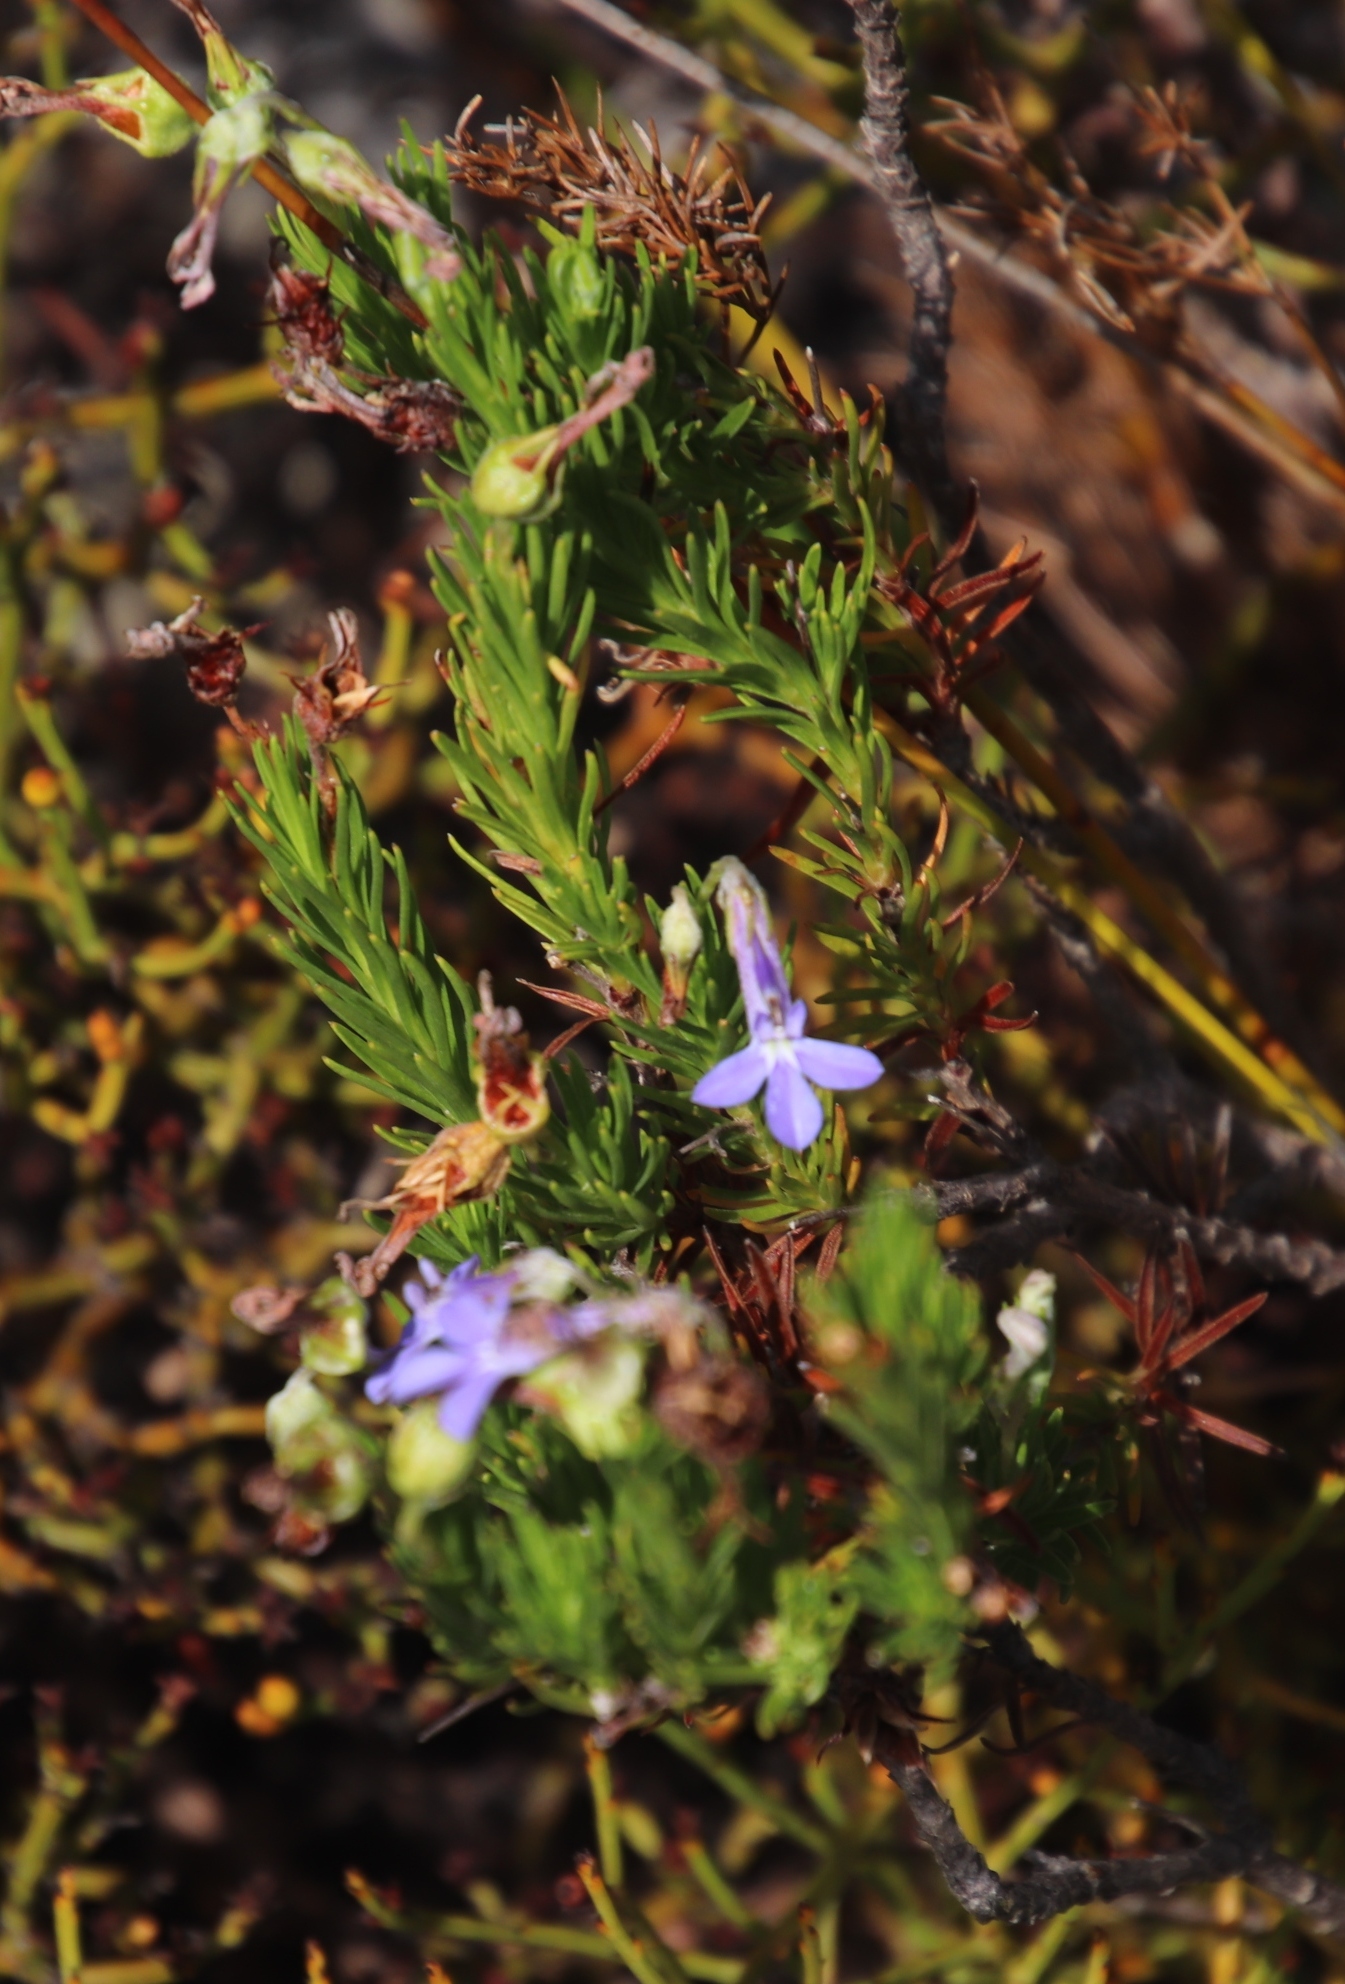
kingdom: Plantae
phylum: Tracheophyta
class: Magnoliopsida
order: Asterales
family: Campanulaceae
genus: Lobelia
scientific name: Lobelia pinifolia
